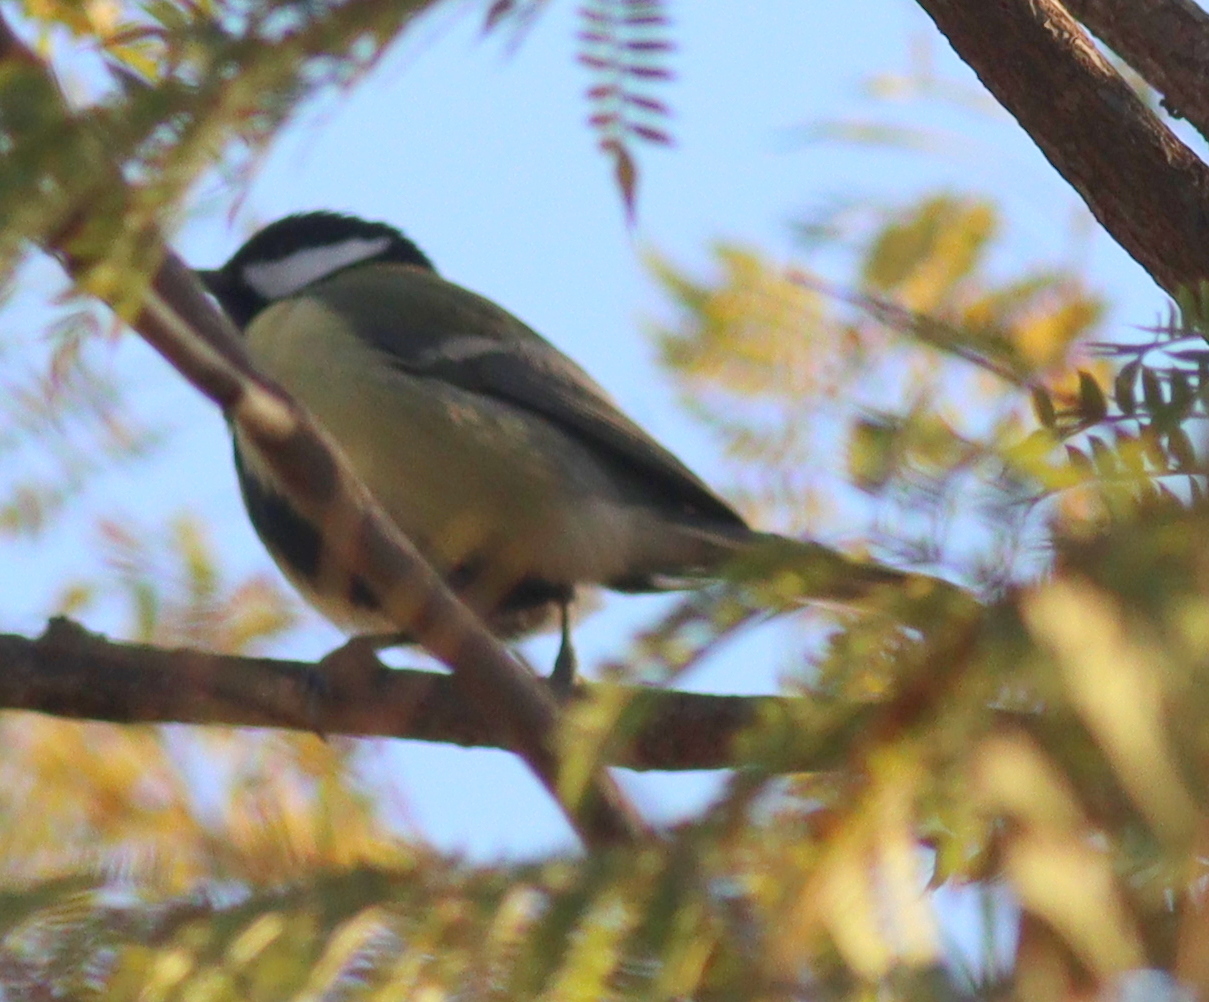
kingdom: Animalia
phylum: Chordata
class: Aves
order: Passeriformes
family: Paridae
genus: Parus
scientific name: Parus major
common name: Great tit
